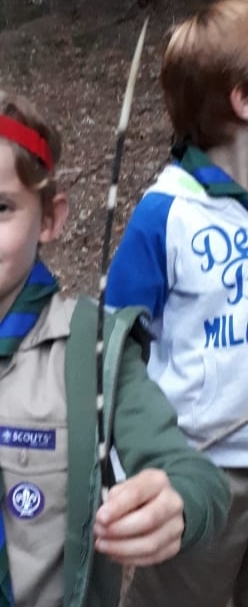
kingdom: Animalia
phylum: Chordata
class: Mammalia
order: Rodentia
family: Hystricidae
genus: Hystrix
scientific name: Hystrix africaeaustralis
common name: Cape porcupine
